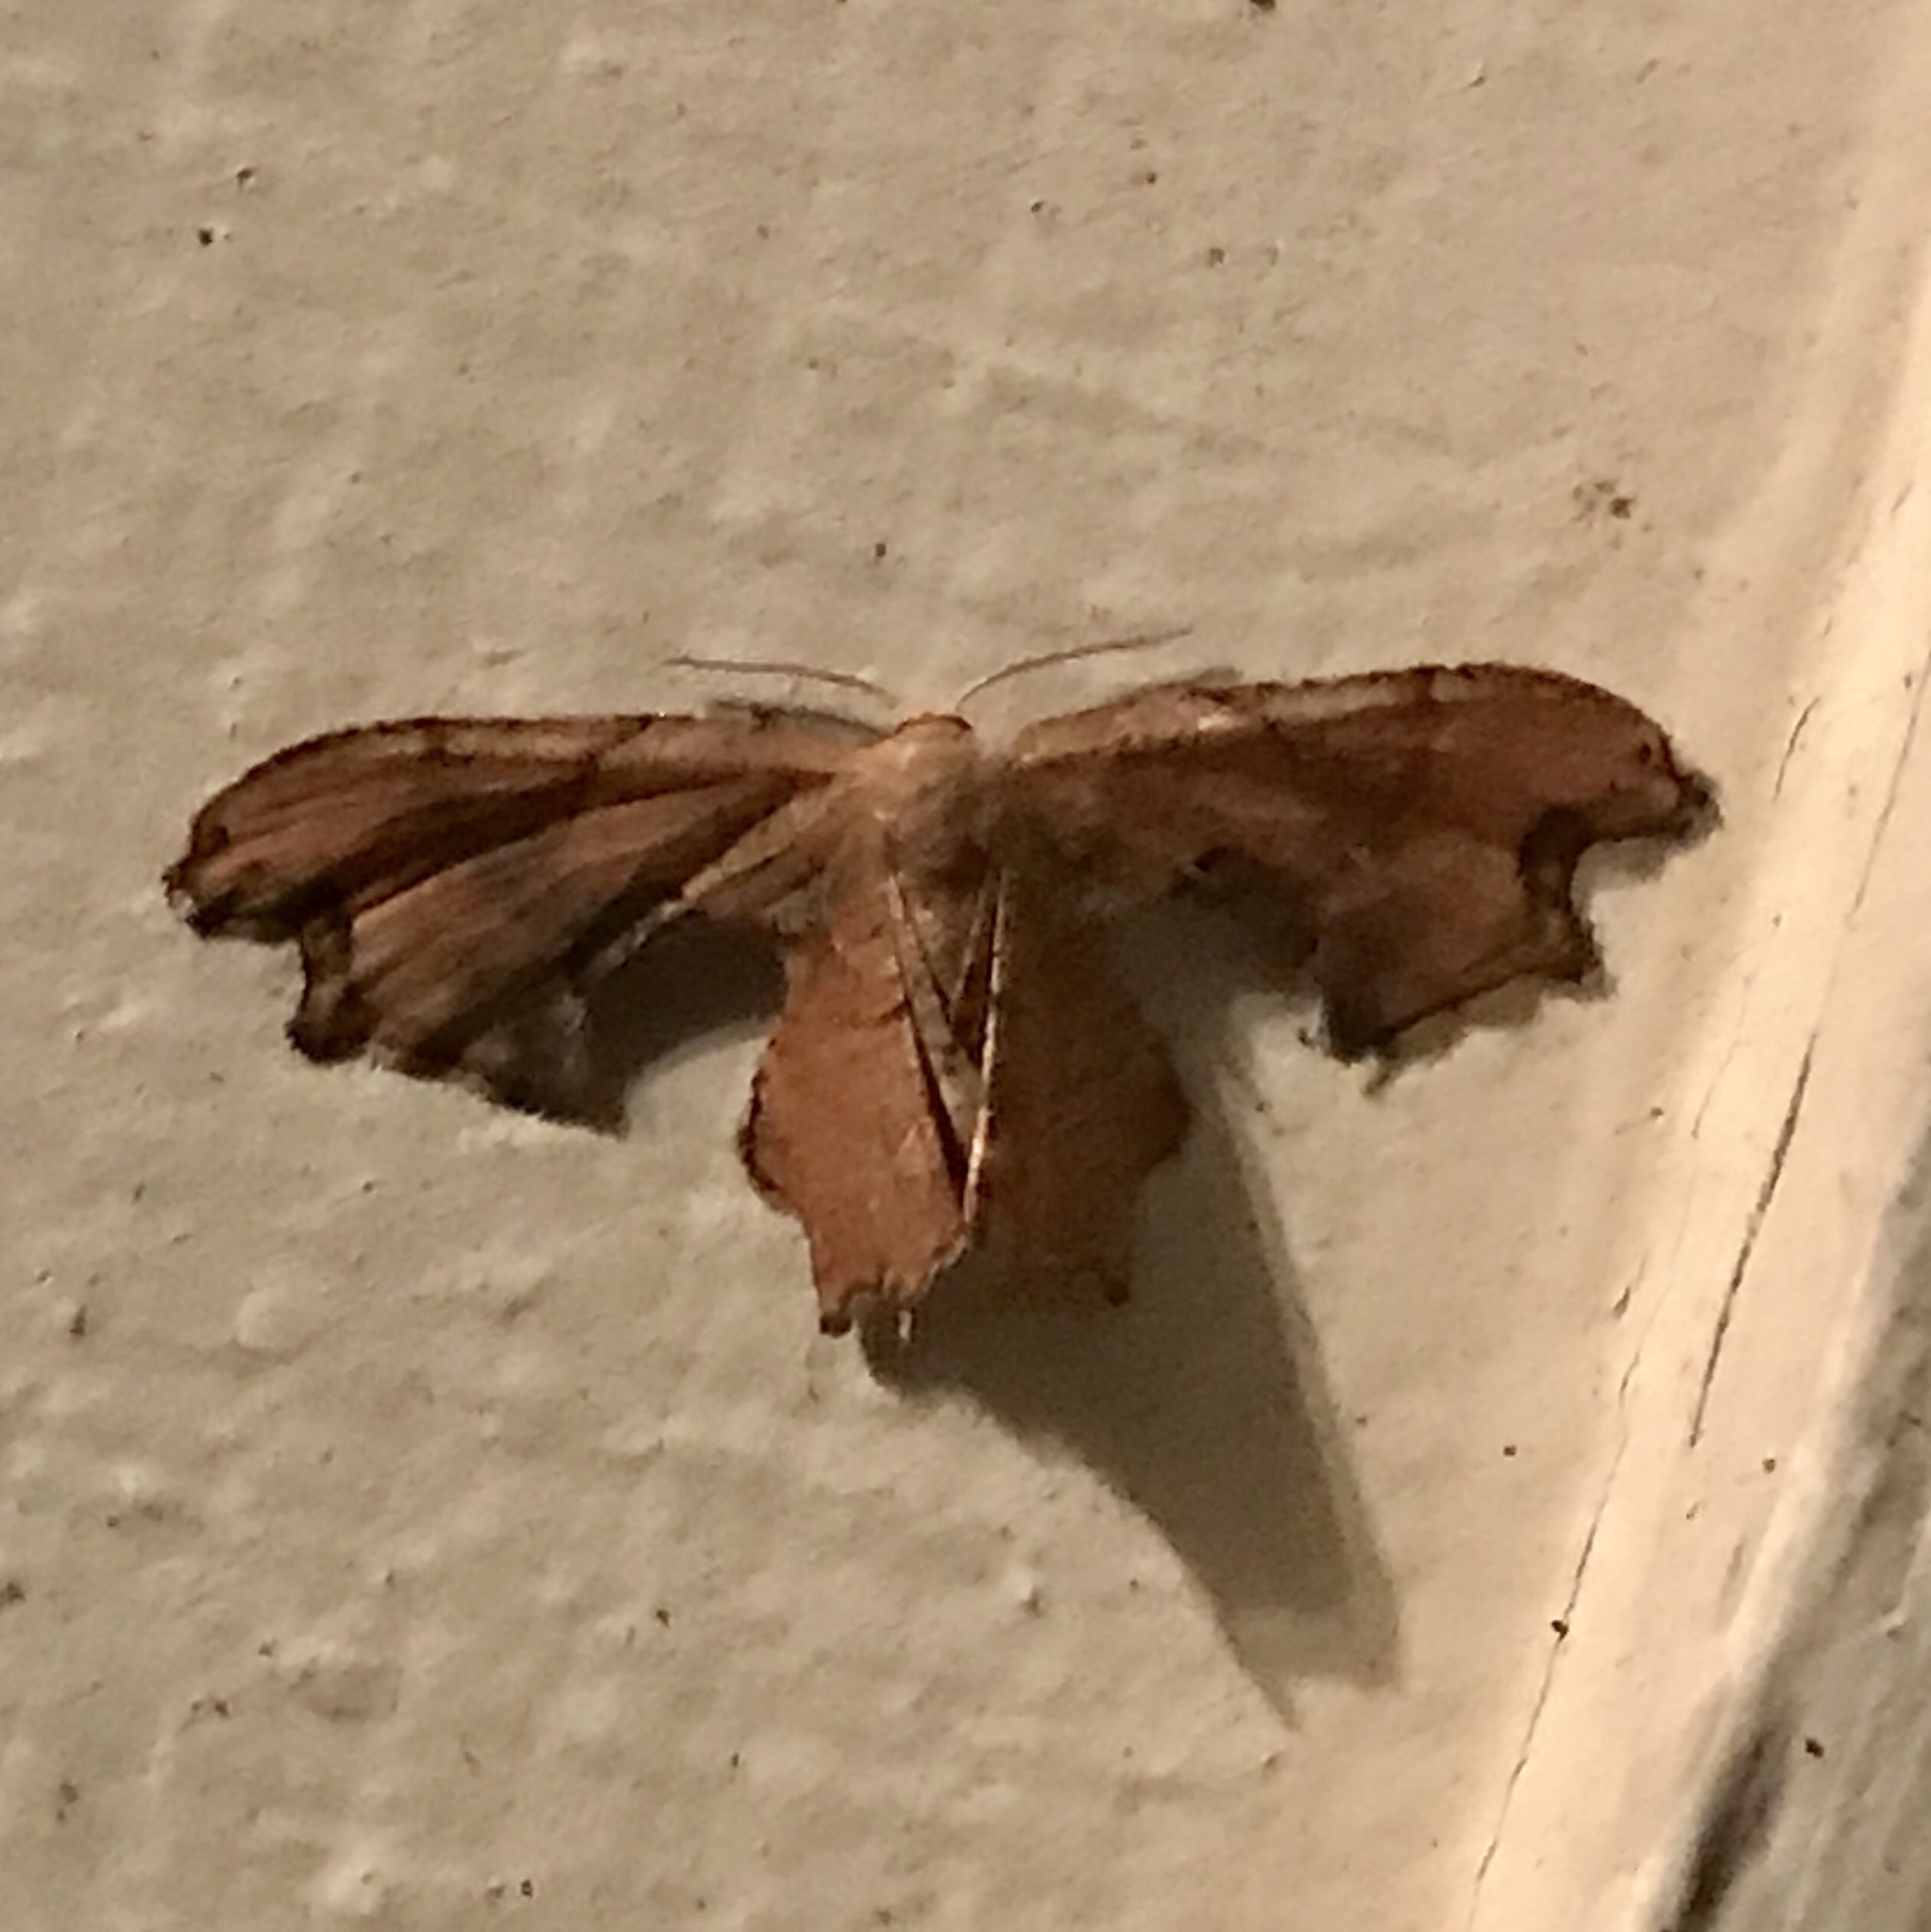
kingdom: Animalia
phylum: Arthropoda
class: Insecta
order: Lepidoptera
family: Uraniidae
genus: Epiplema
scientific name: Epiplema Calledapteryx dryopterata
